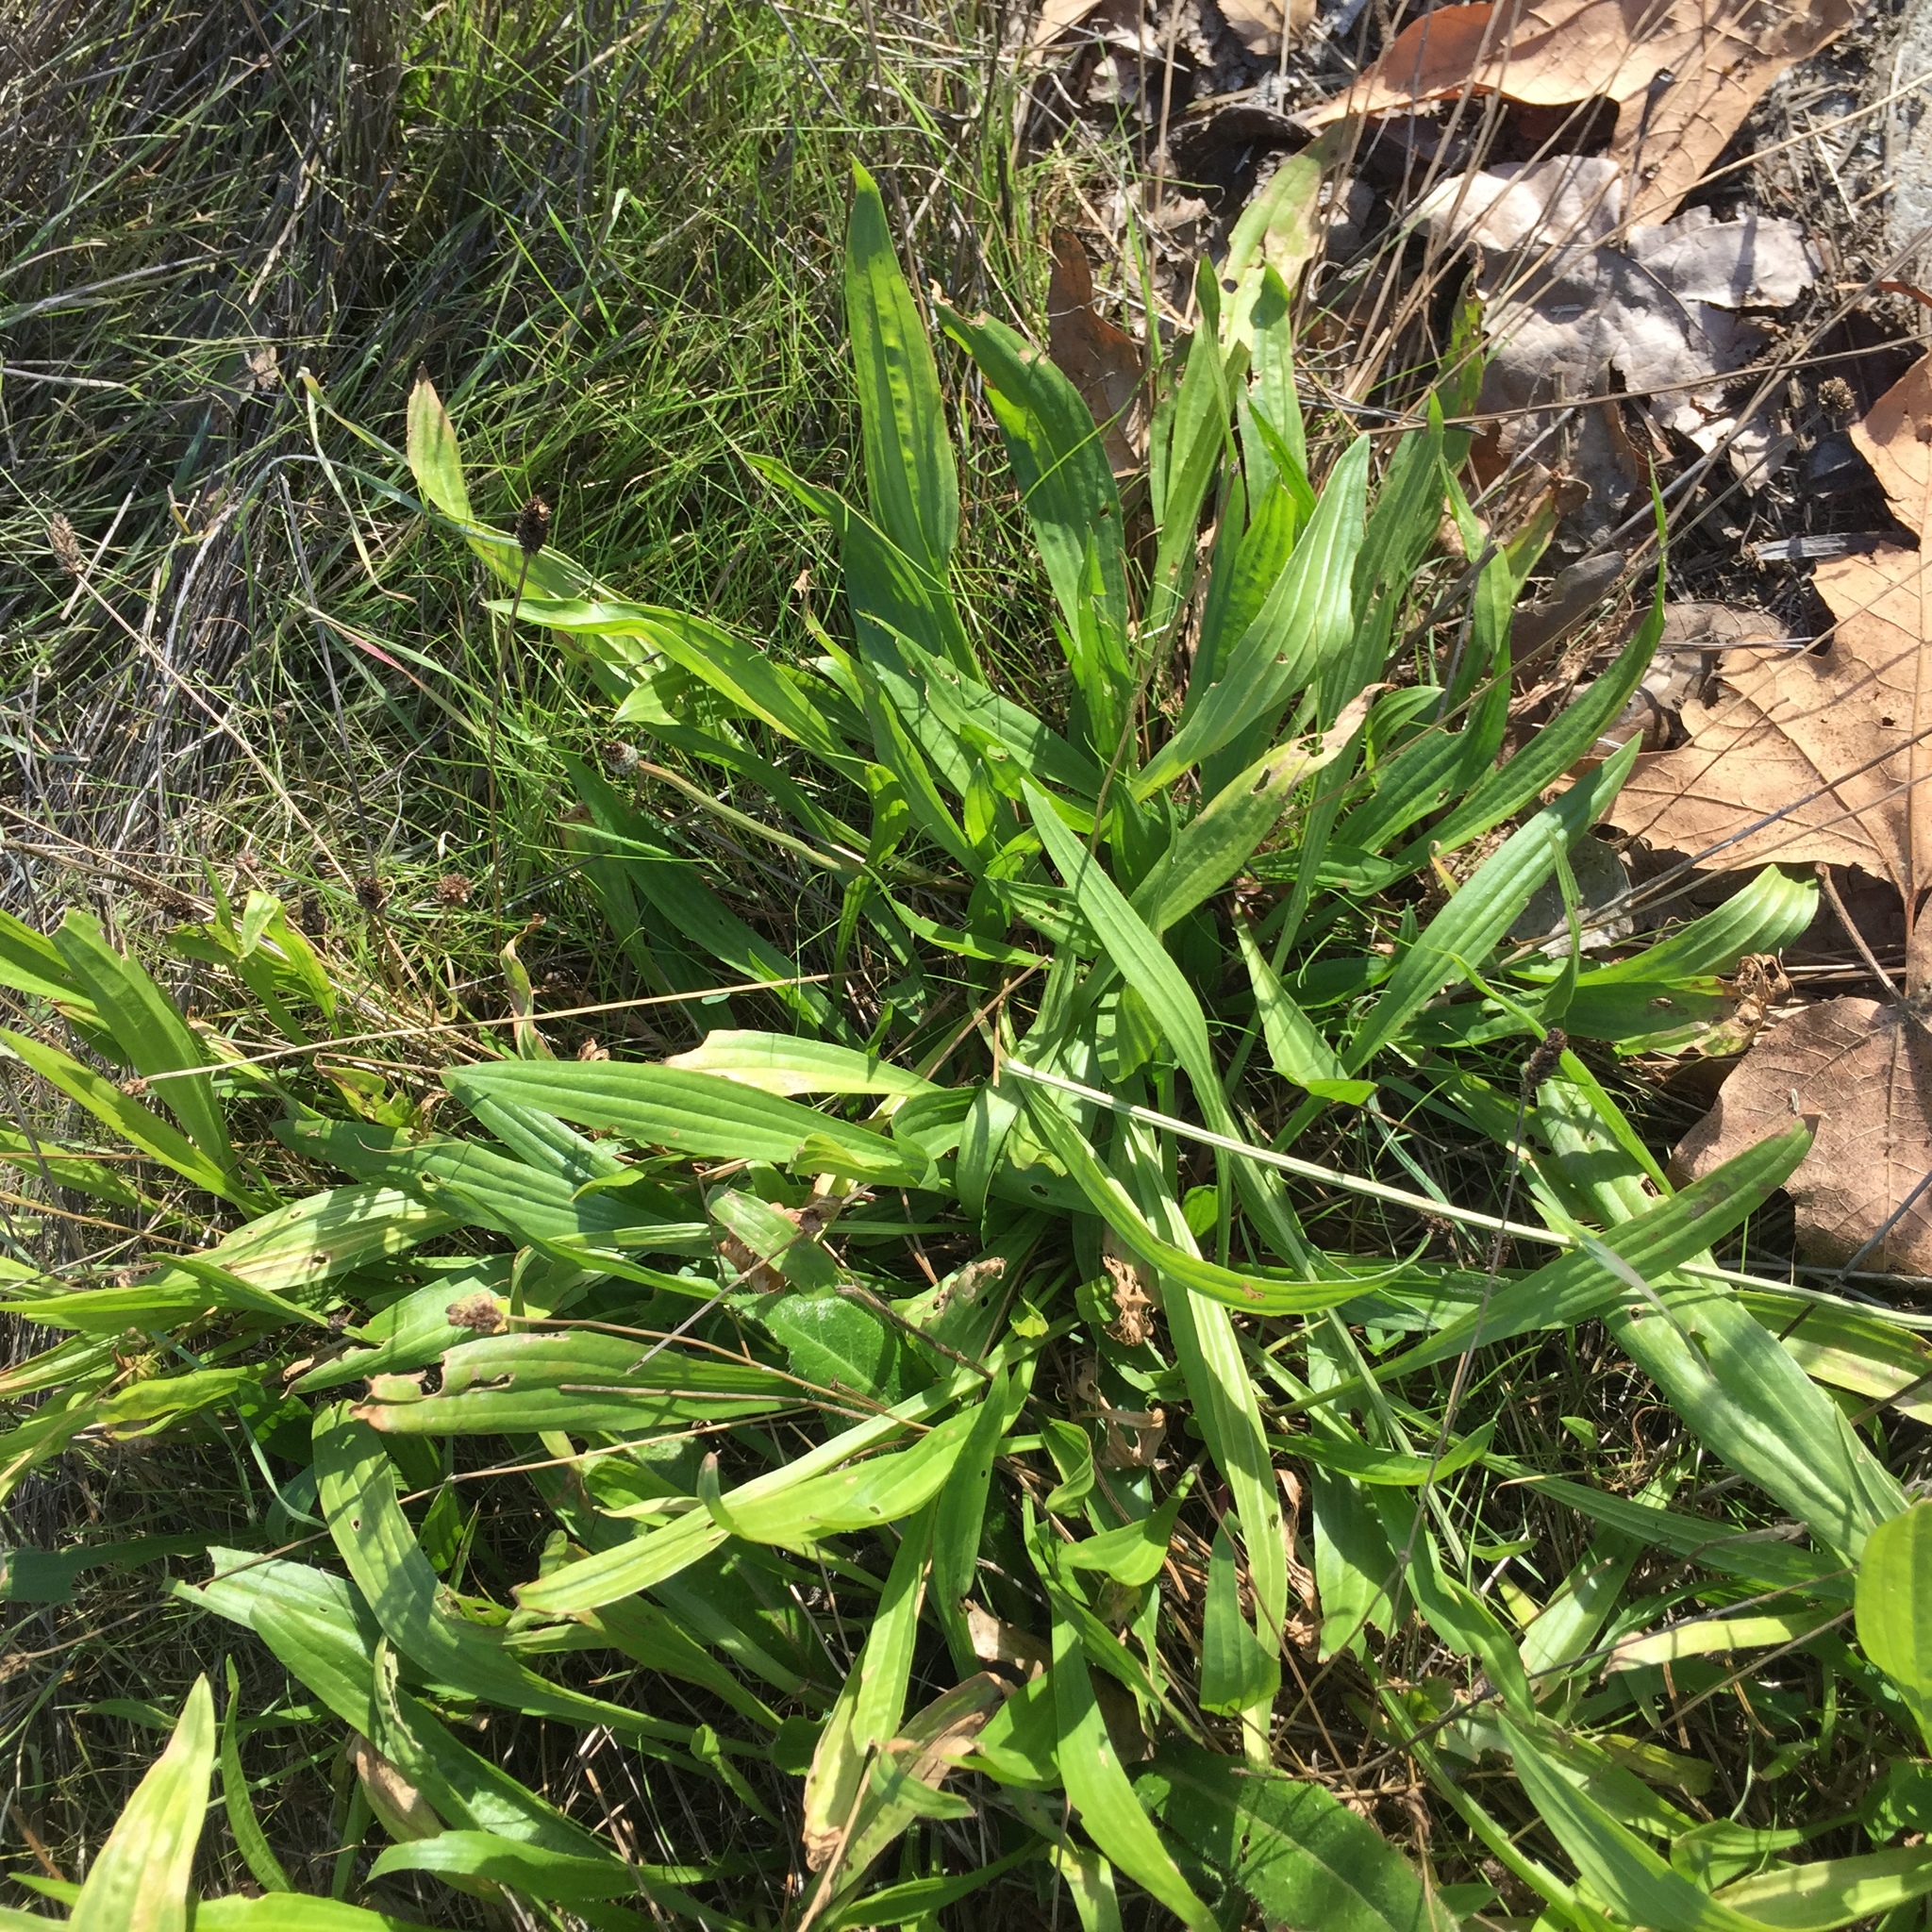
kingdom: Plantae
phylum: Tracheophyta
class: Magnoliopsida
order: Lamiales
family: Plantaginaceae
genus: Plantago
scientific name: Plantago lanceolata
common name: Ribwort plantain
